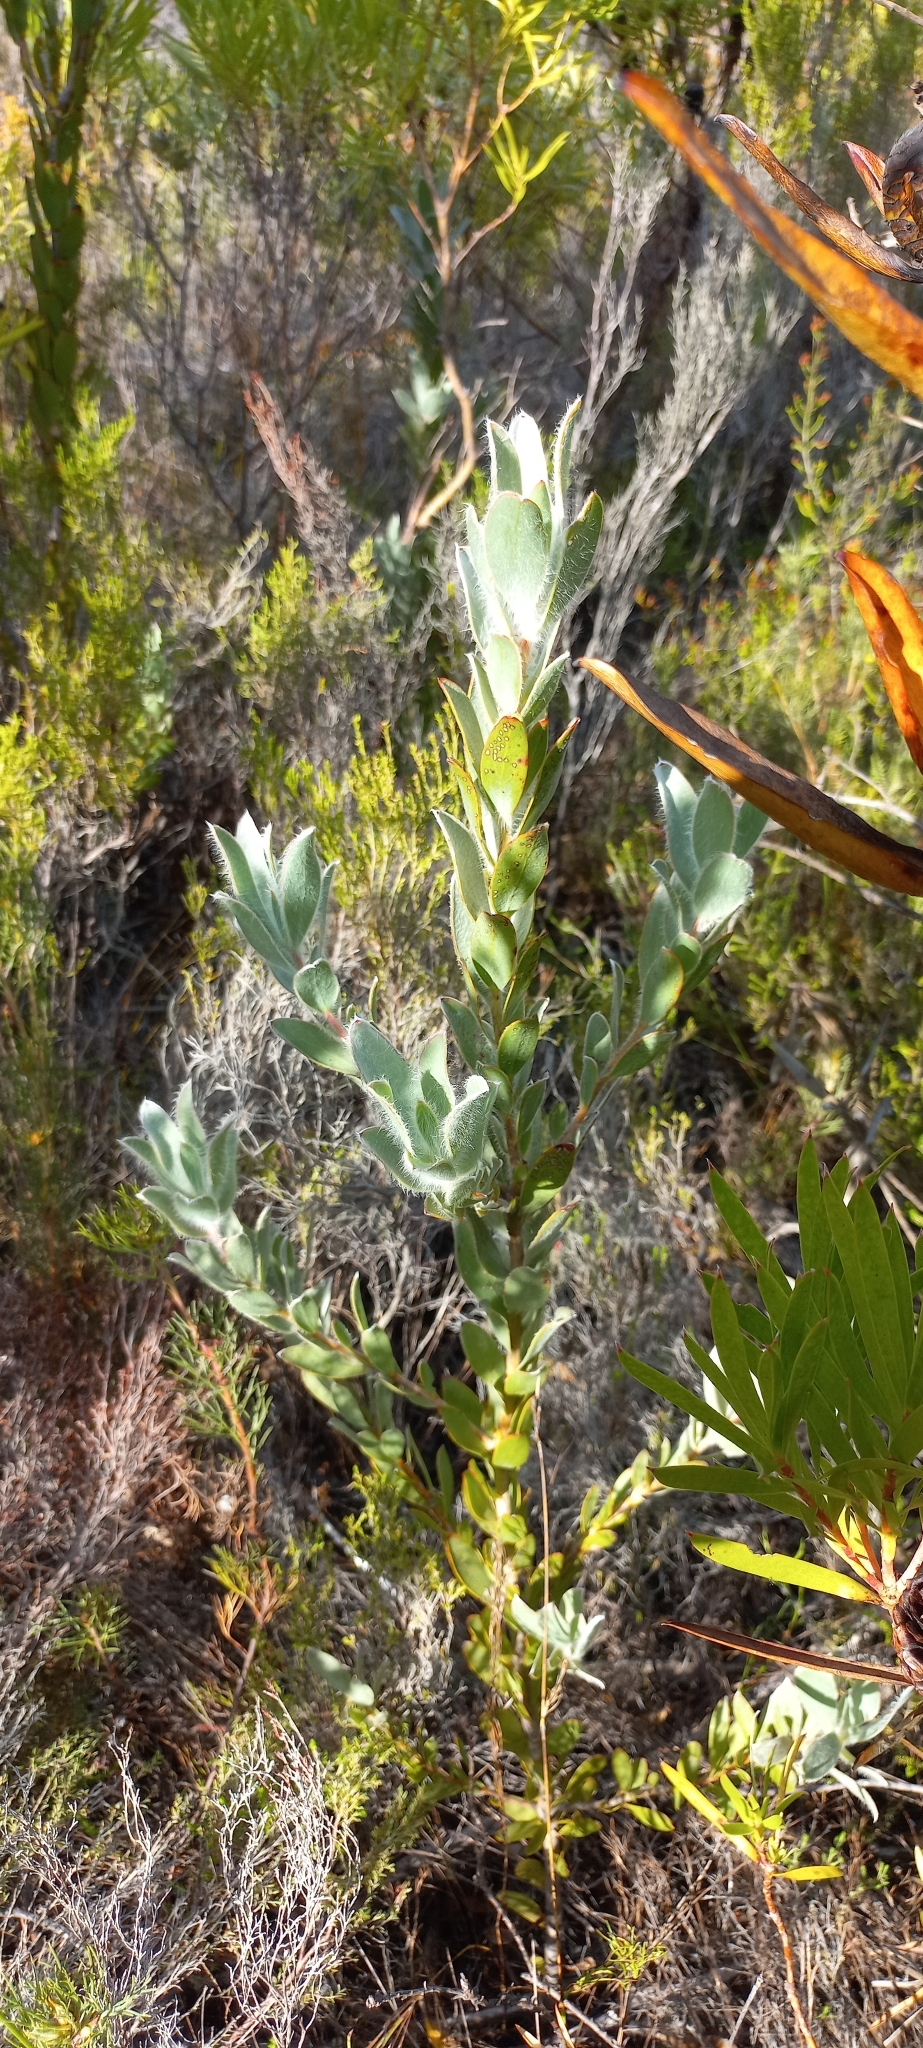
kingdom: Plantae
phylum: Tracheophyta
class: Magnoliopsida
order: Proteales
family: Proteaceae
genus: Leucadendron
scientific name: Leucadendron nervosum
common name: Silky-ruff conebush
